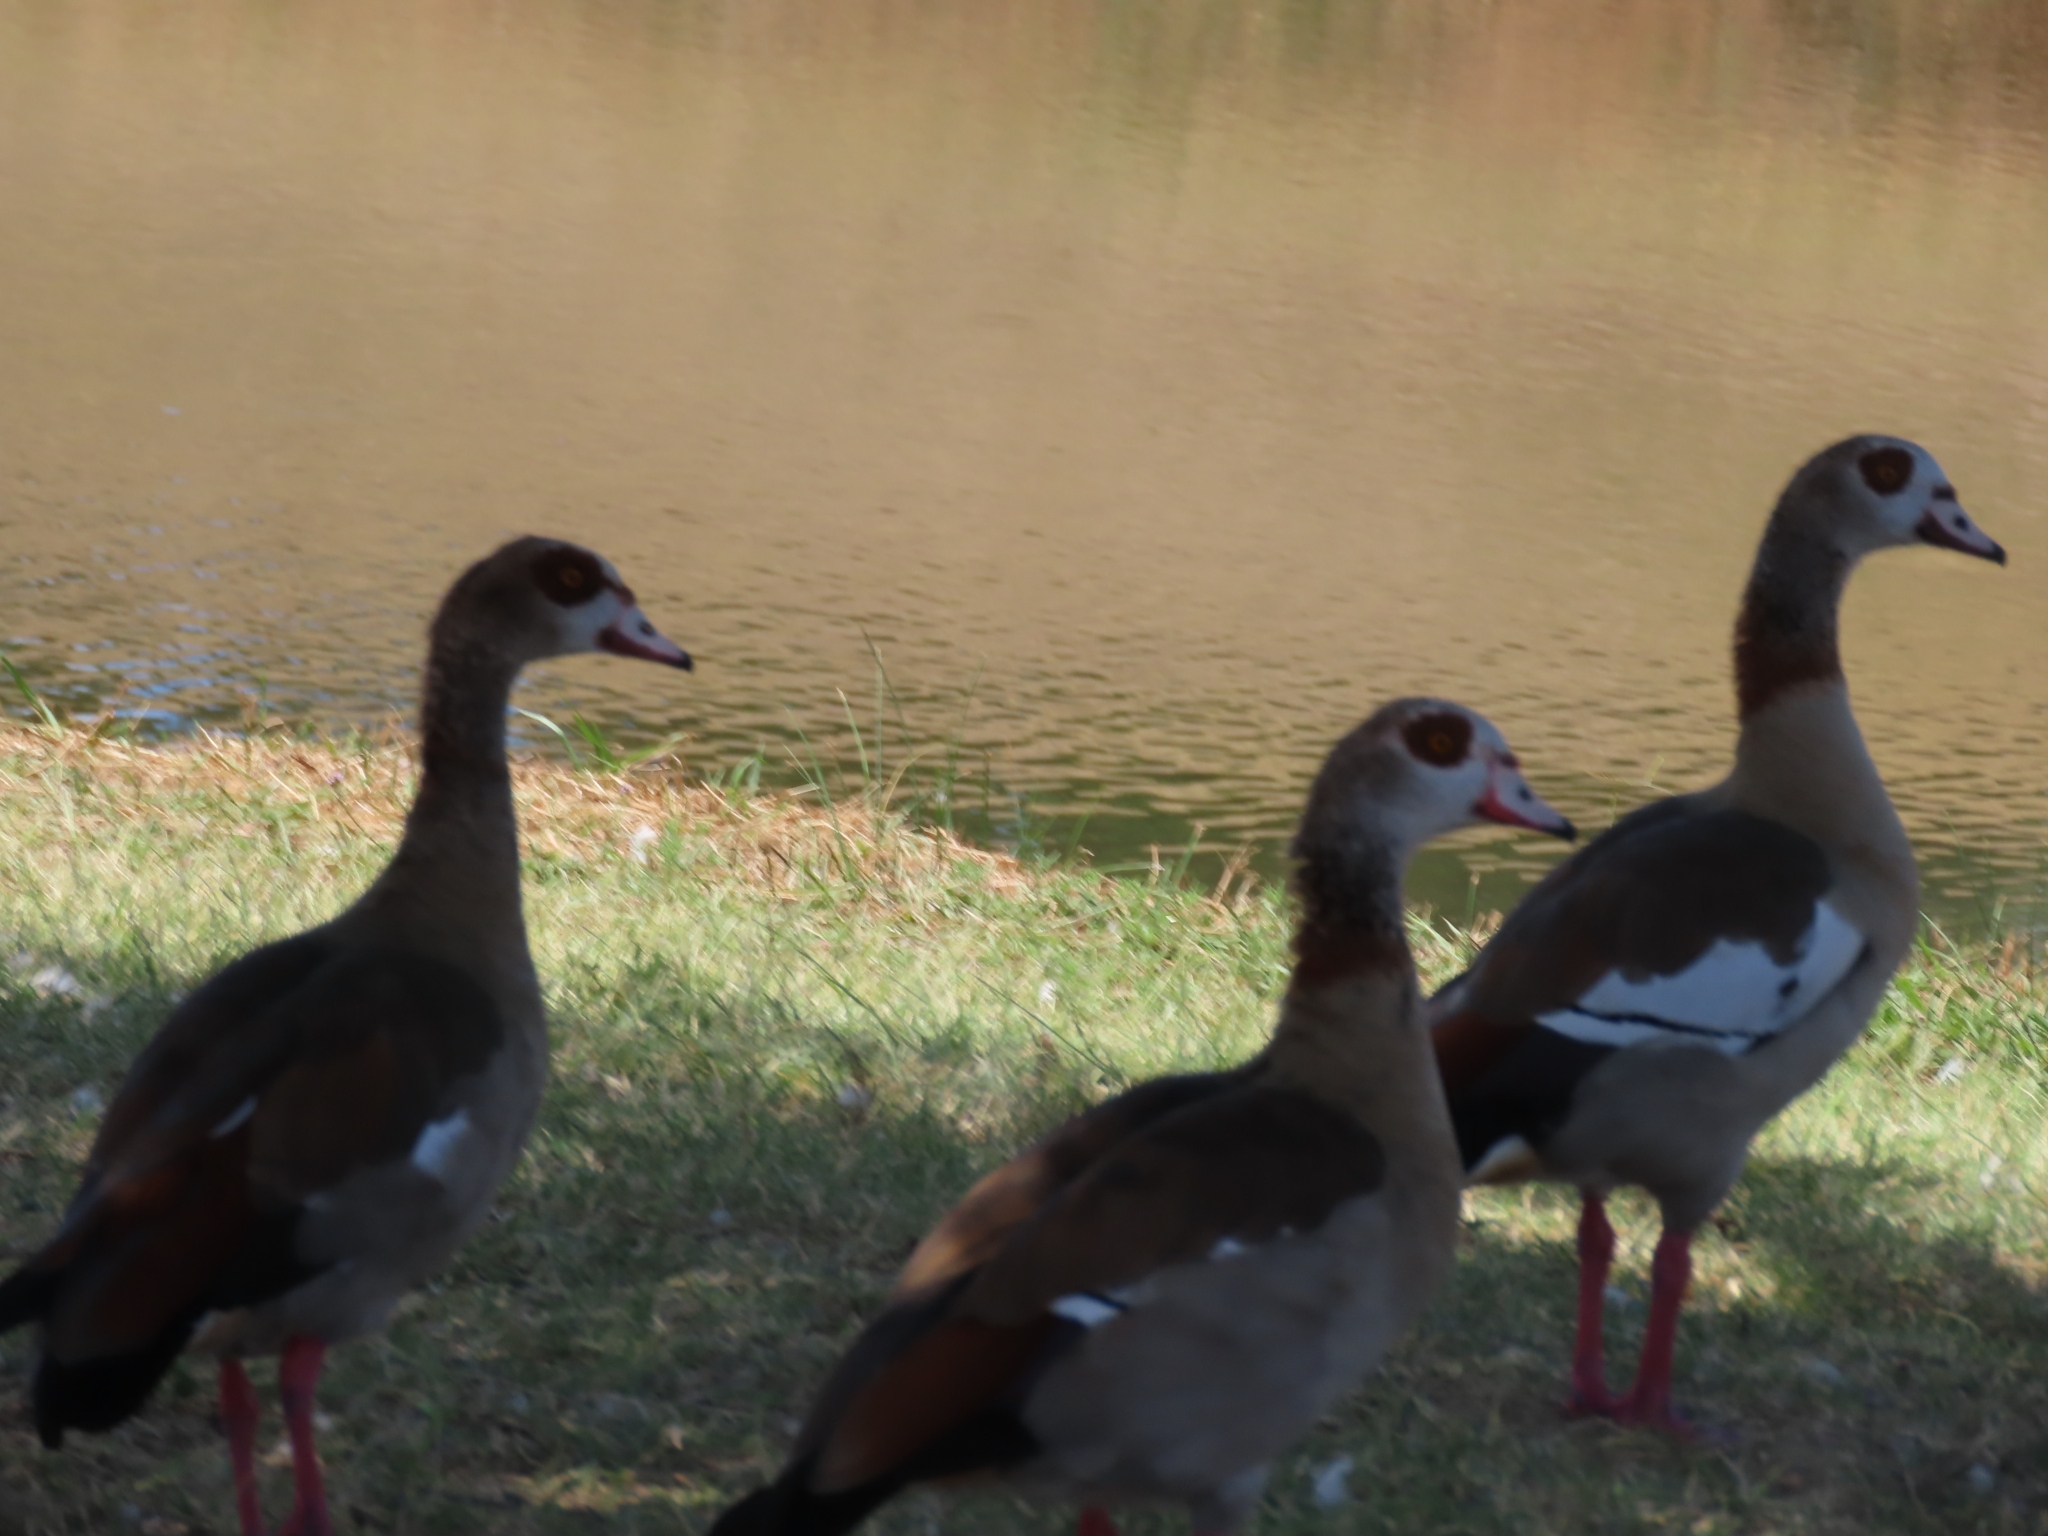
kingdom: Animalia
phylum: Chordata
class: Aves
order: Anseriformes
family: Anatidae
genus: Alopochen
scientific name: Alopochen aegyptiaca
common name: Egyptian goose
